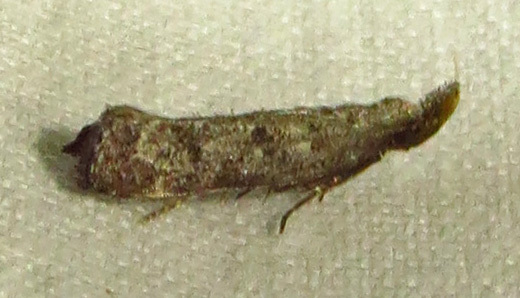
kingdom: Animalia
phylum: Arthropoda
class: Insecta
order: Lepidoptera
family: Gelechiidae
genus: Dichomeris
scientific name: Dichomeris inversella
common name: Inverse dichomeris moth
